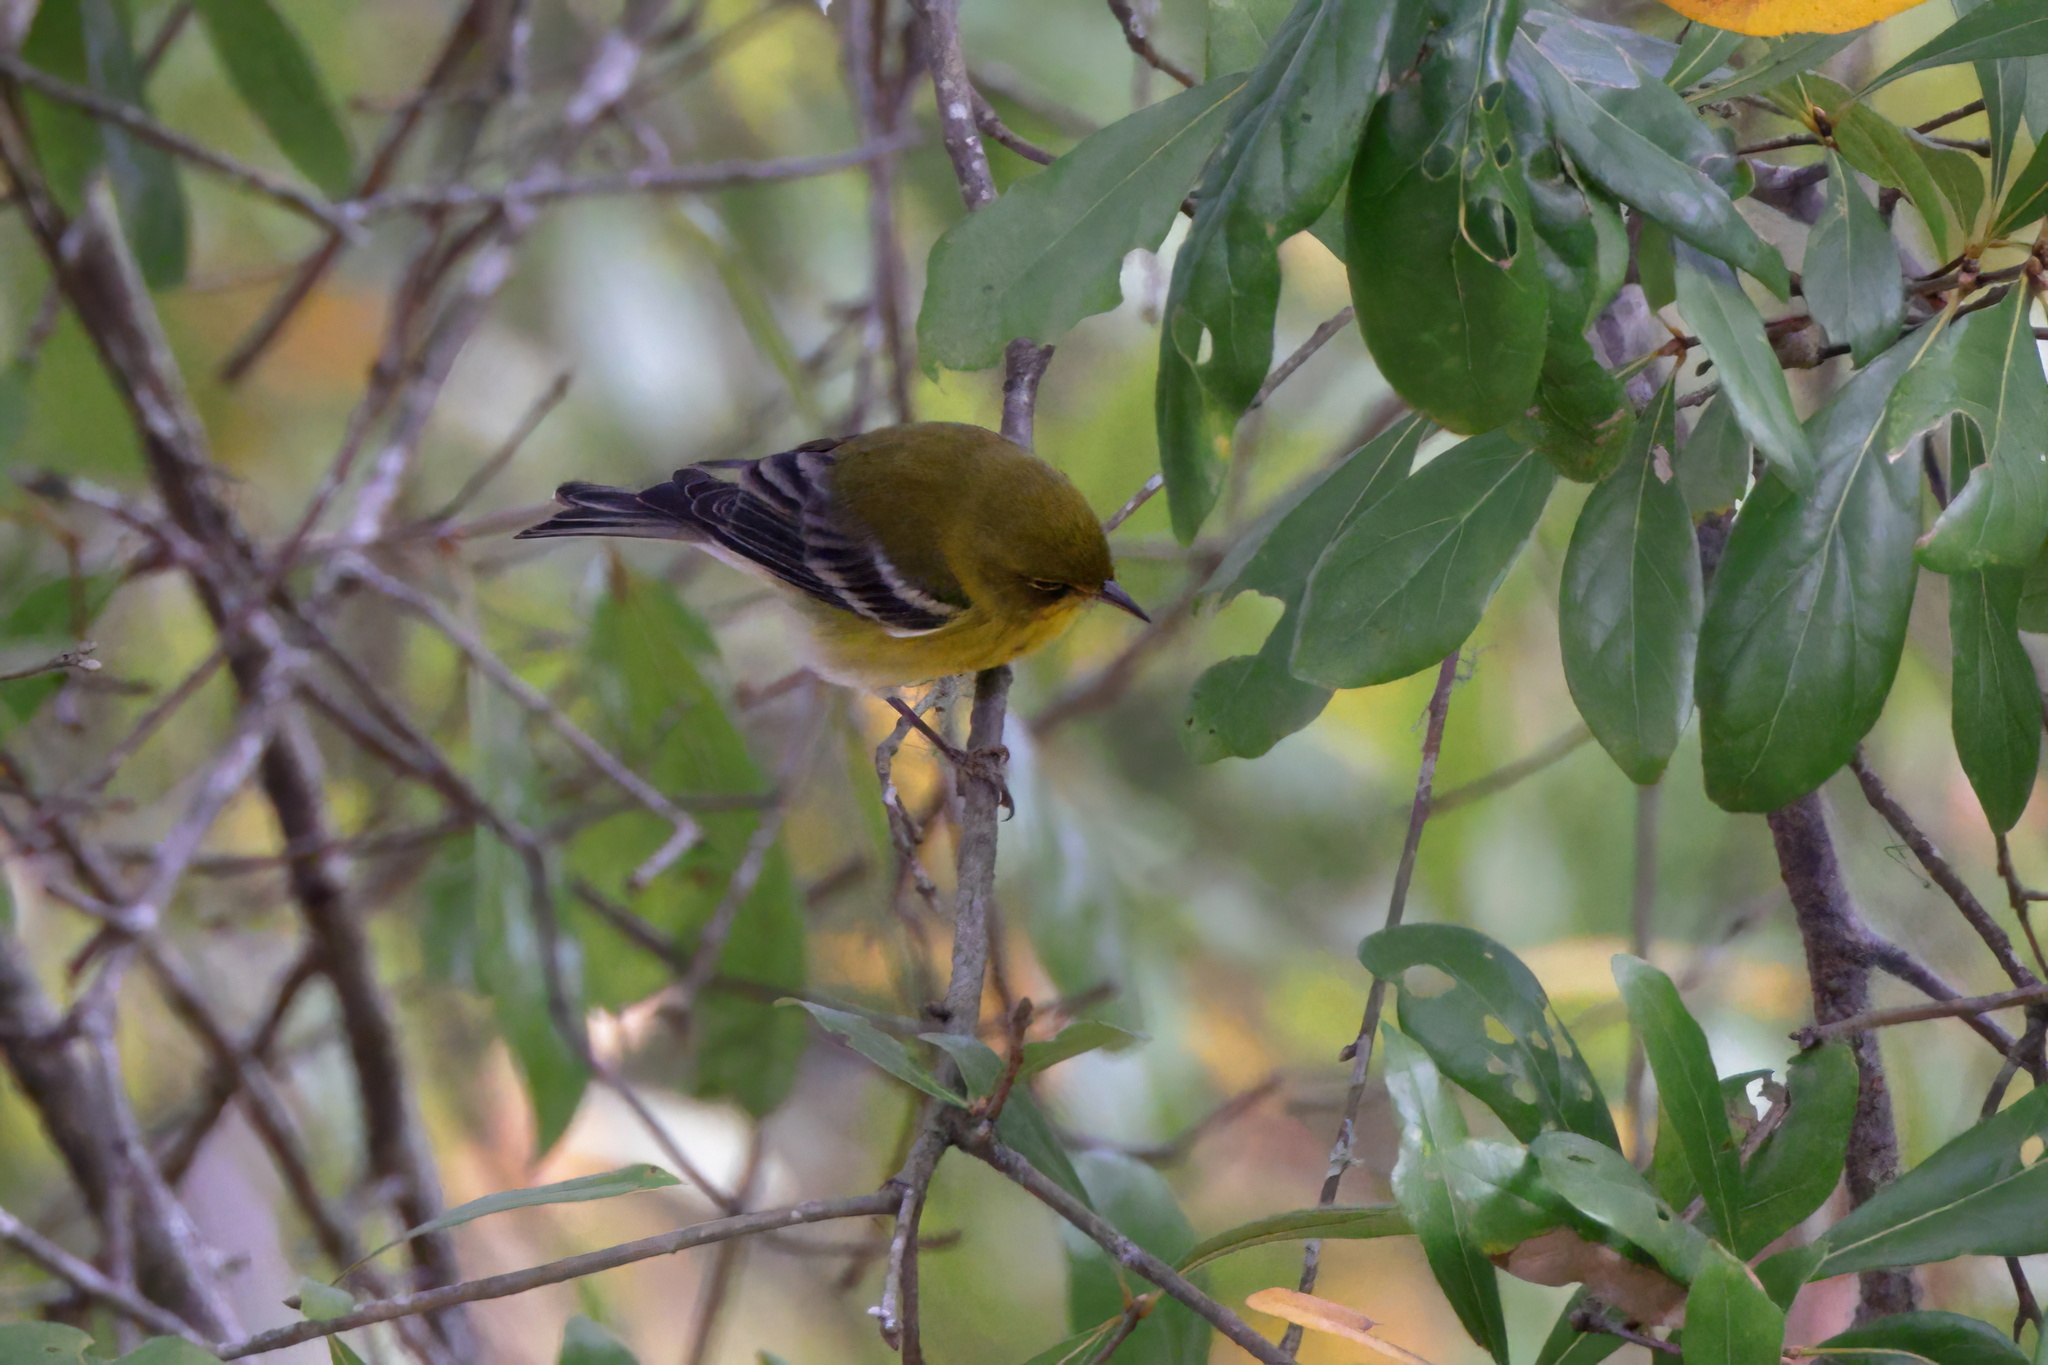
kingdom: Animalia
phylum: Chordata
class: Aves
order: Passeriformes
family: Parulidae
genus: Setophaga
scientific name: Setophaga pinus
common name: Pine warbler
